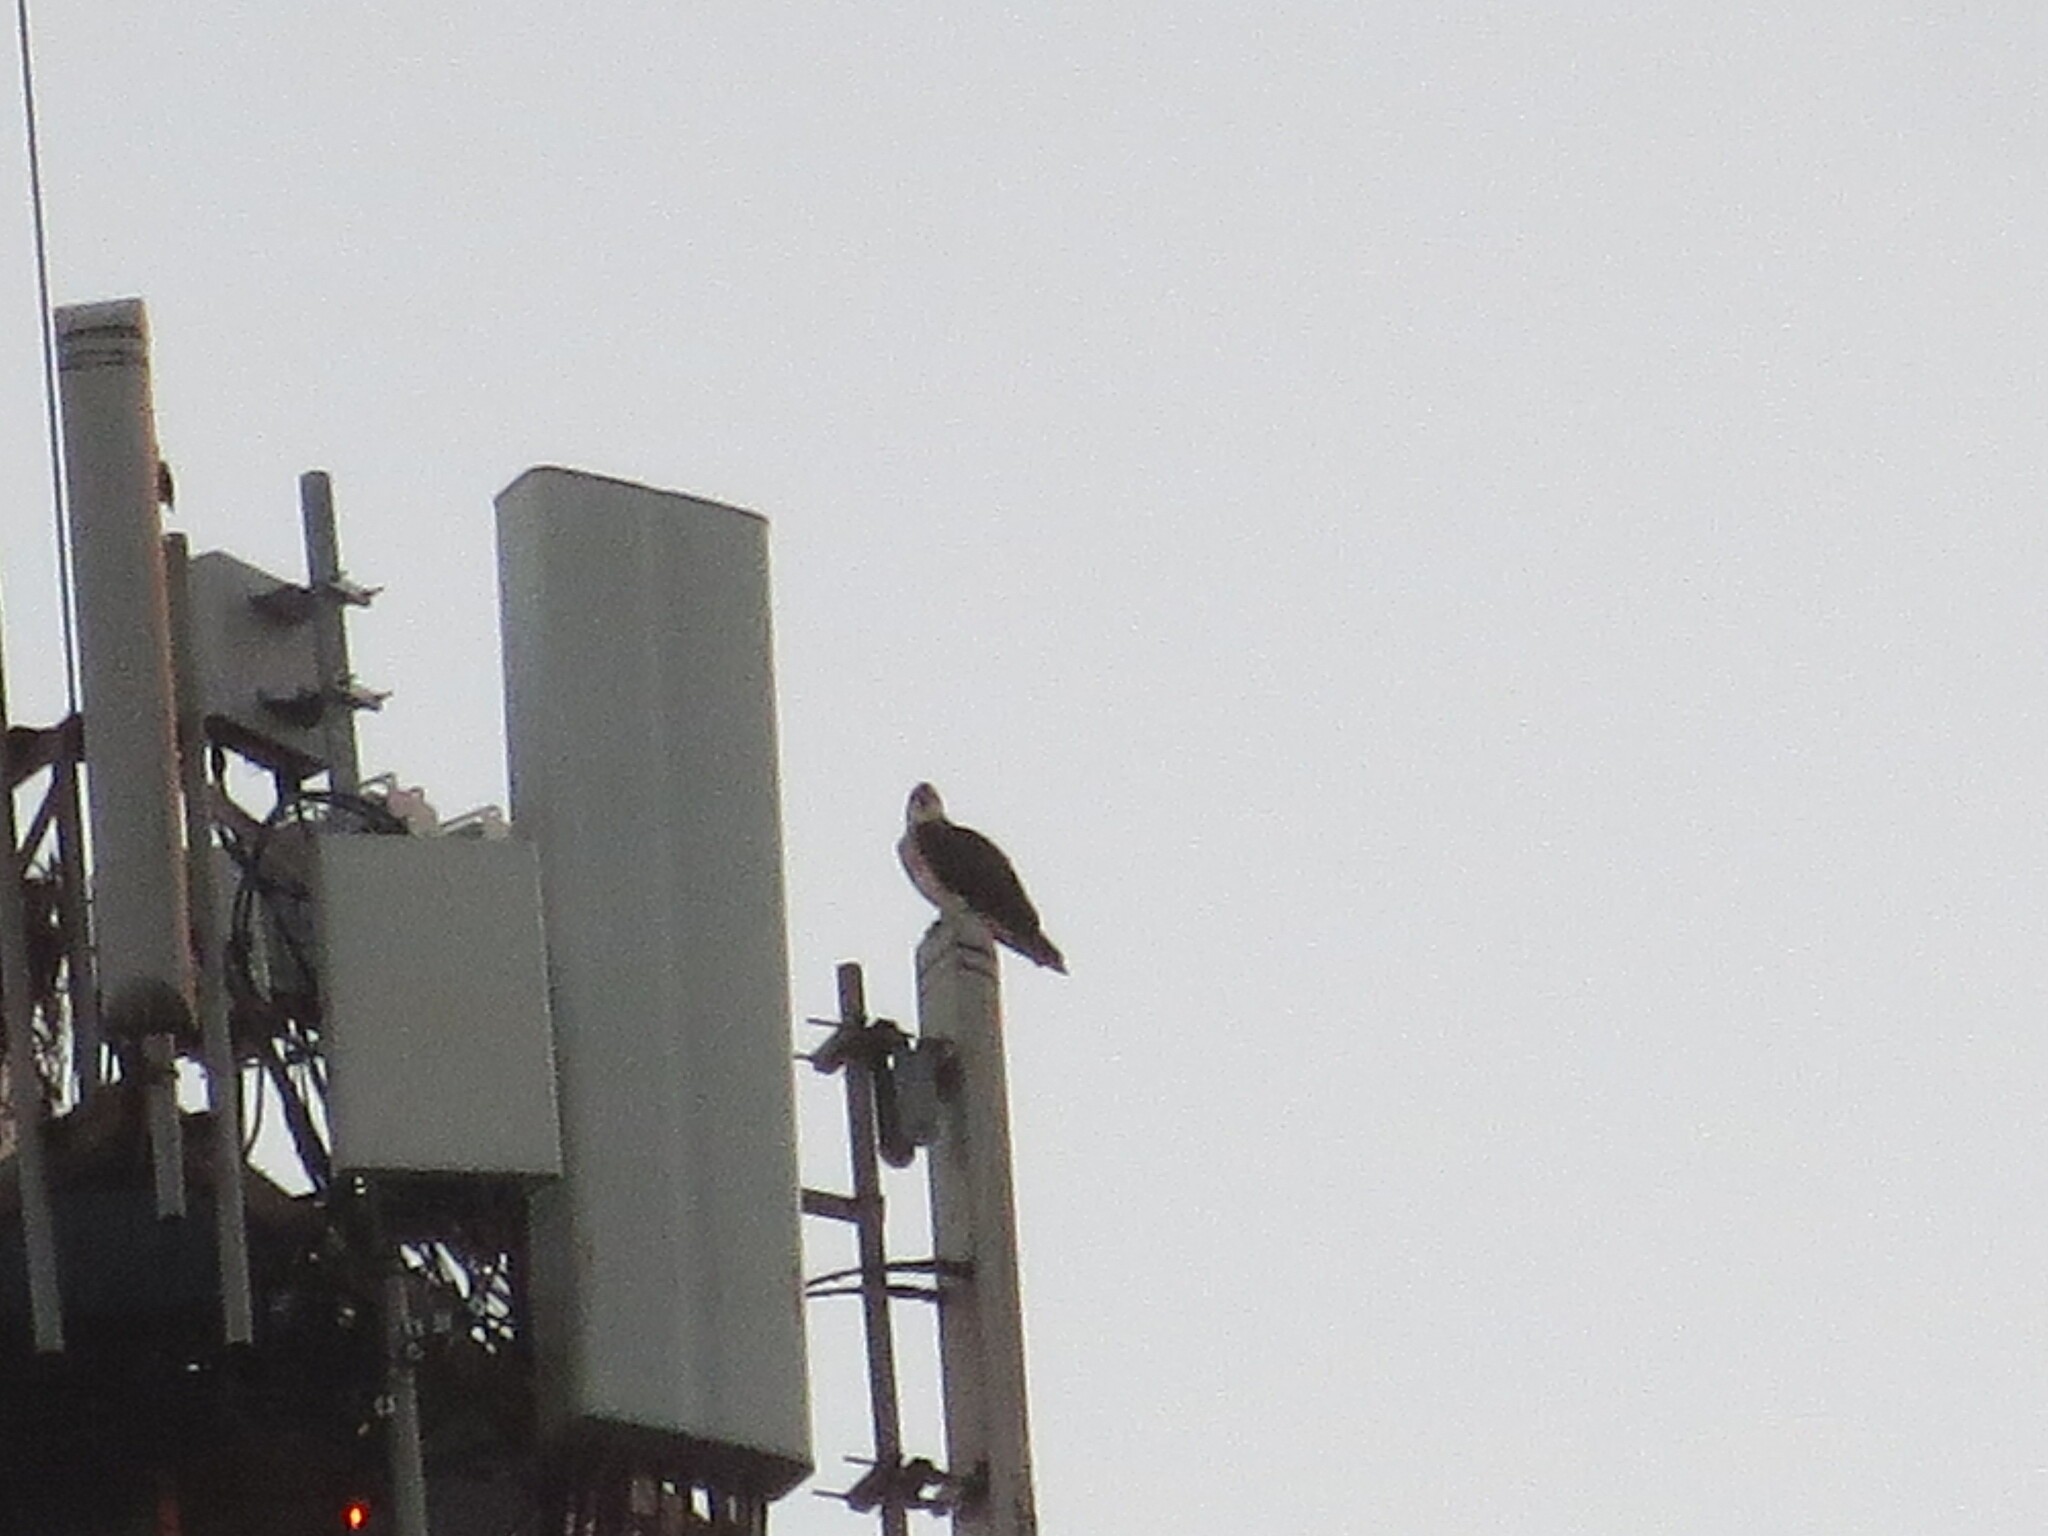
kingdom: Animalia
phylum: Chordata
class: Aves
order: Accipitriformes
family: Pandionidae
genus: Pandion
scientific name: Pandion haliaetus
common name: Osprey
